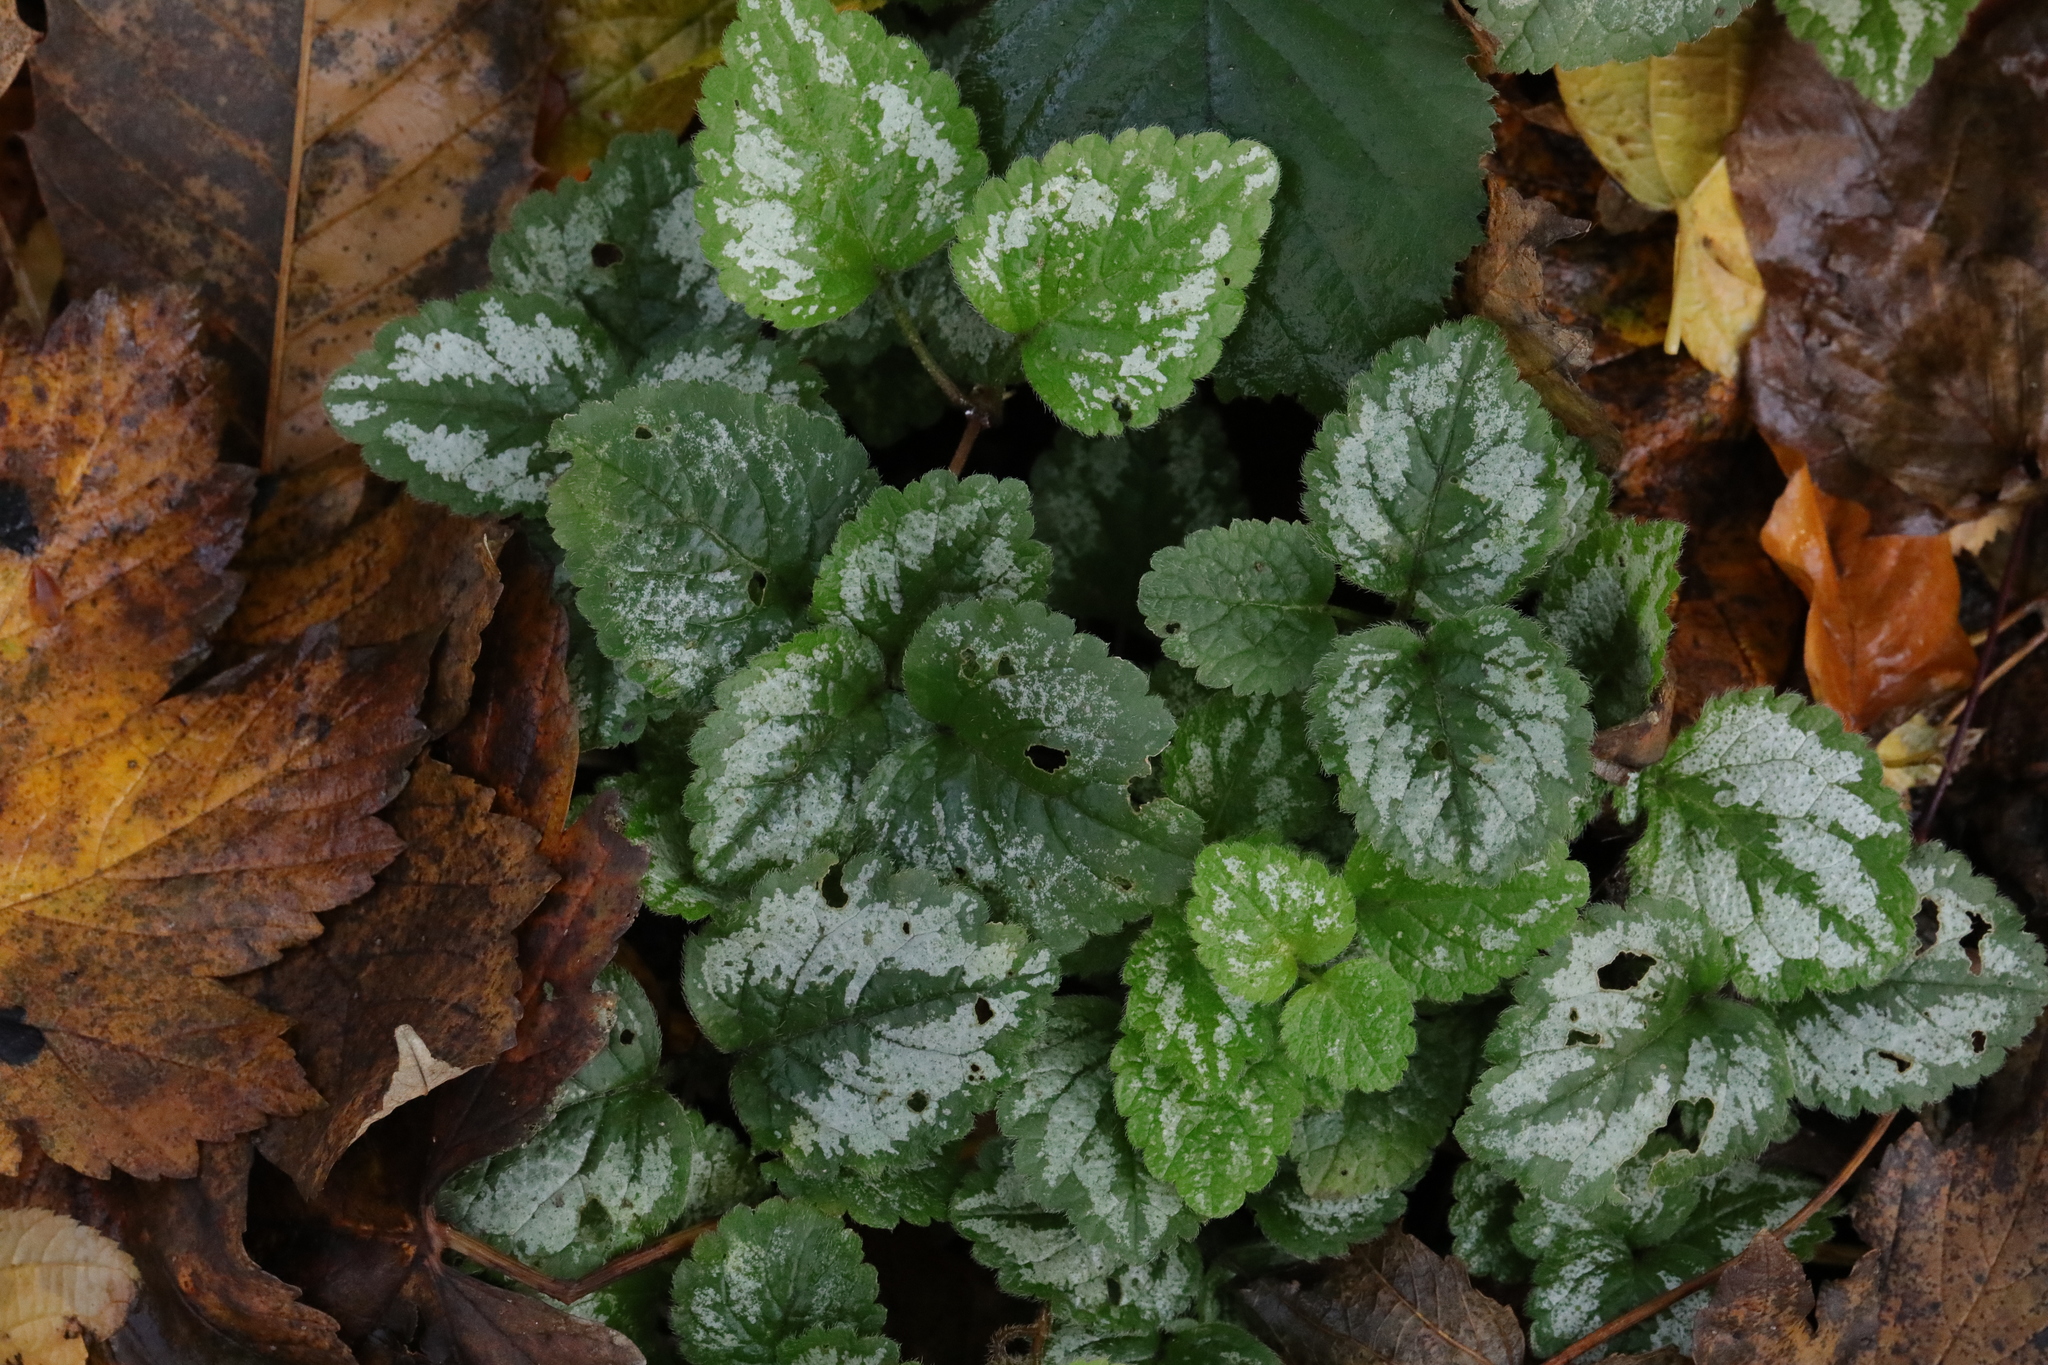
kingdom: Plantae
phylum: Tracheophyta
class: Magnoliopsida
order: Lamiales
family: Lamiaceae
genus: Lamium
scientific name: Lamium galeobdolon
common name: Yellow archangel
